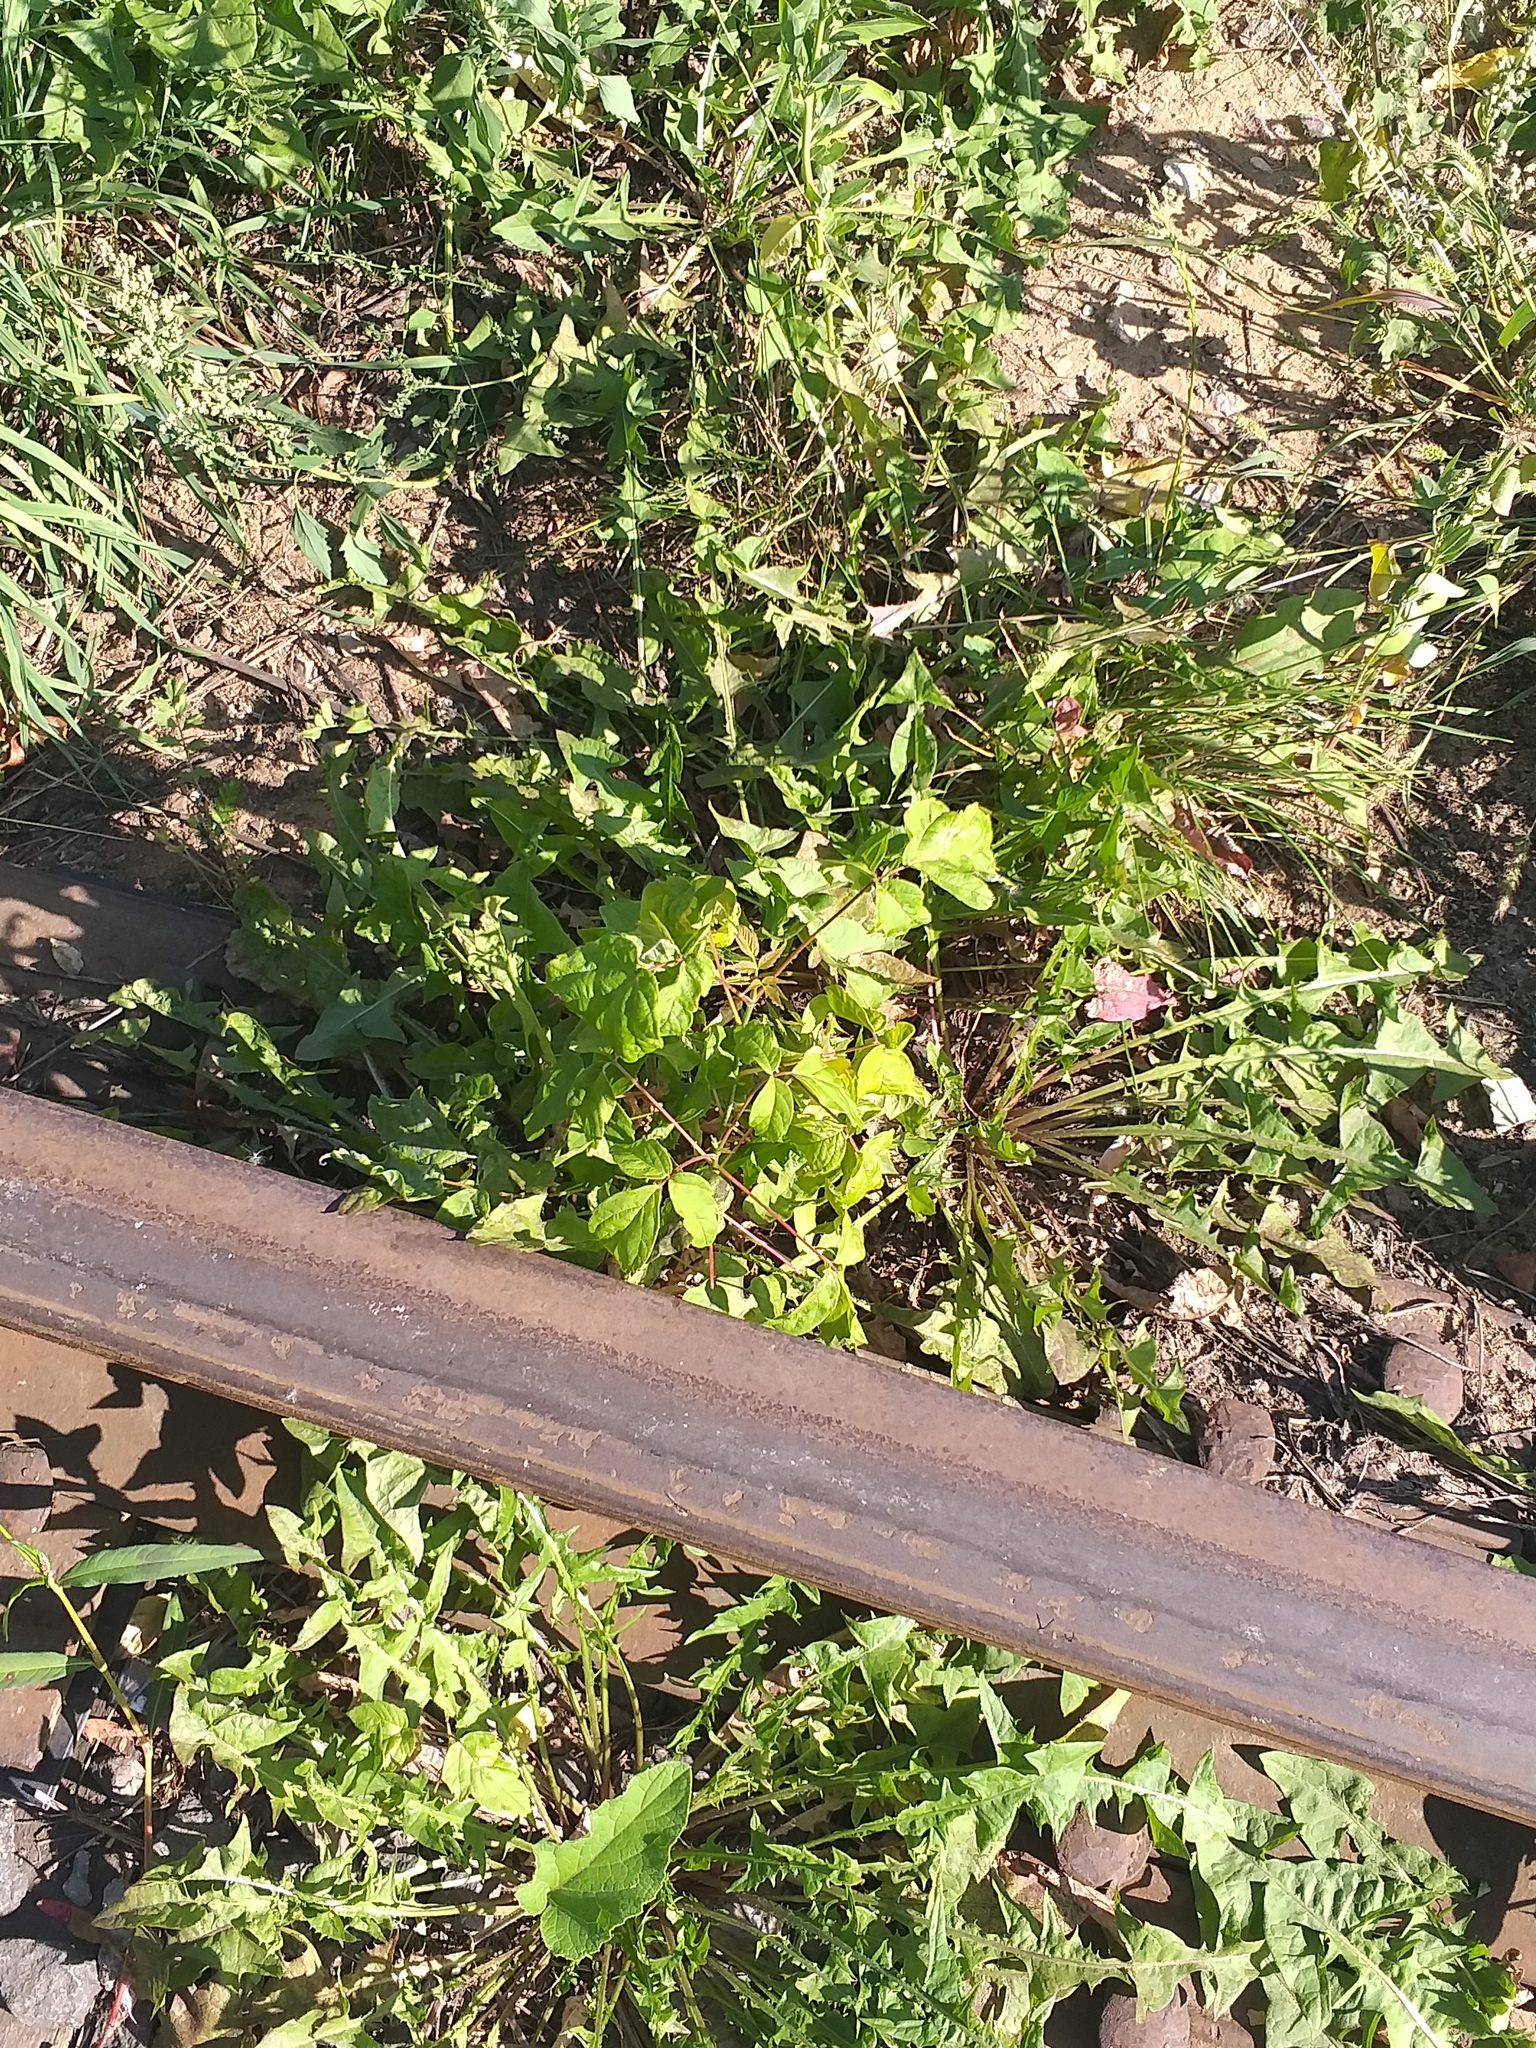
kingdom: Plantae
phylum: Tracheophyta
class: Magnoliopsida
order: Sapindales
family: Sapindaceae
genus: Acer
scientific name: Acer negundo
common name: Ashleaf maple
